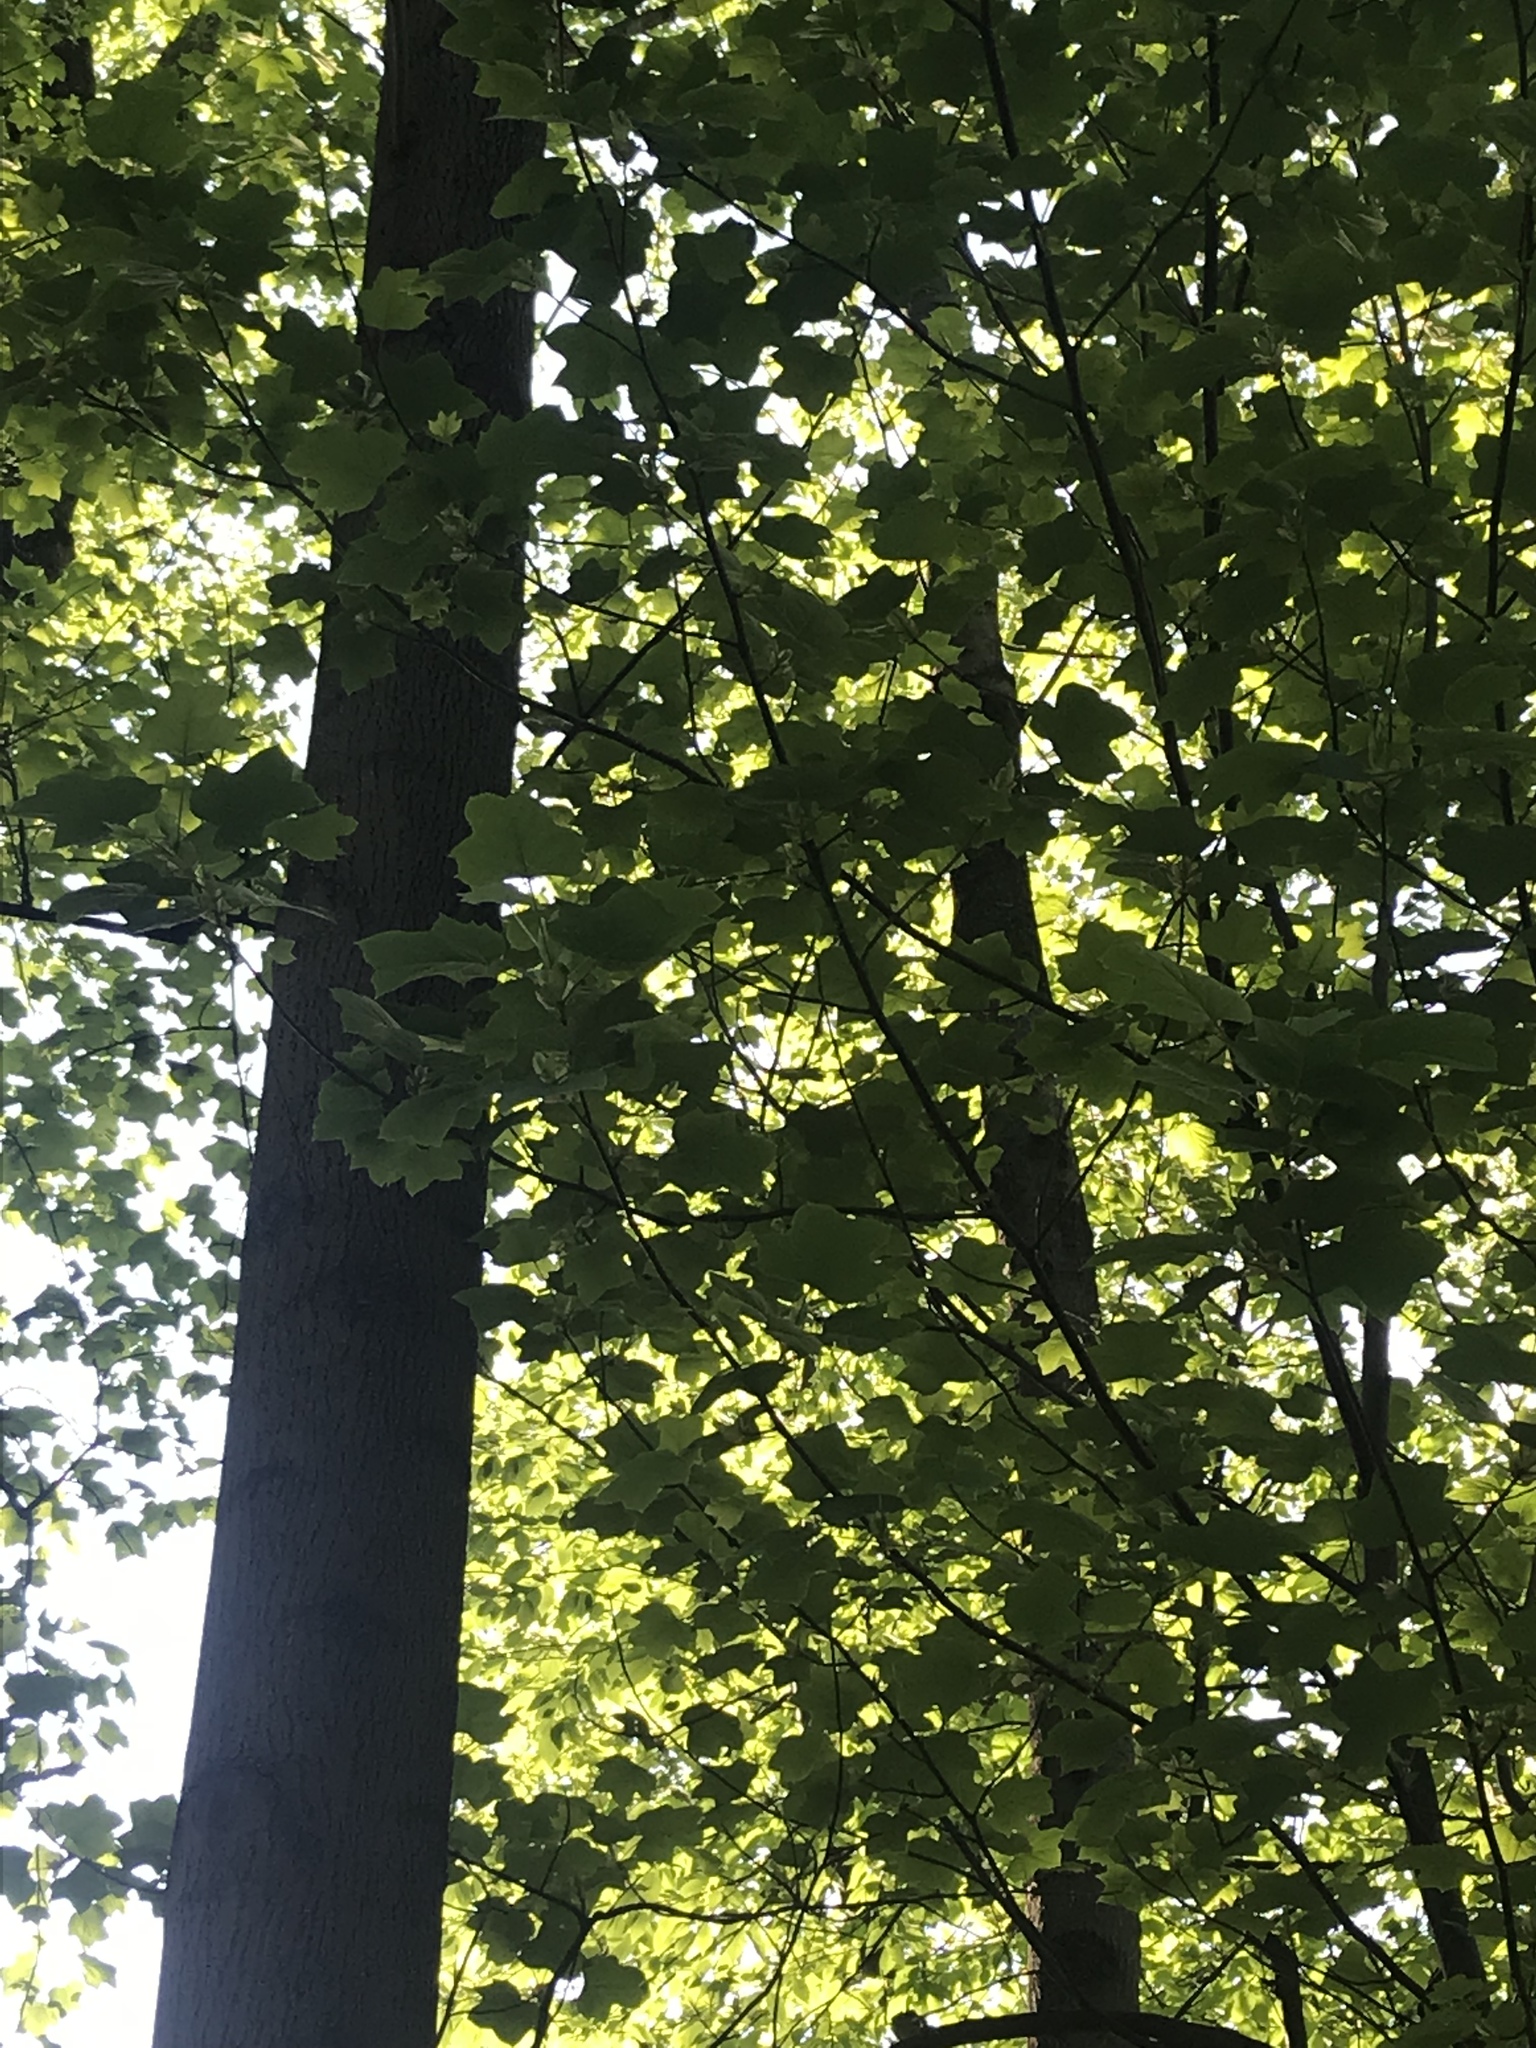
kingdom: Plantae
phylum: Tracheophyta
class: Magnoliopsida
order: Magnoliales
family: Magnoliaceae
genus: Liriodendron
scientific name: Liriodendron tulipifera
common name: Tulip tree
